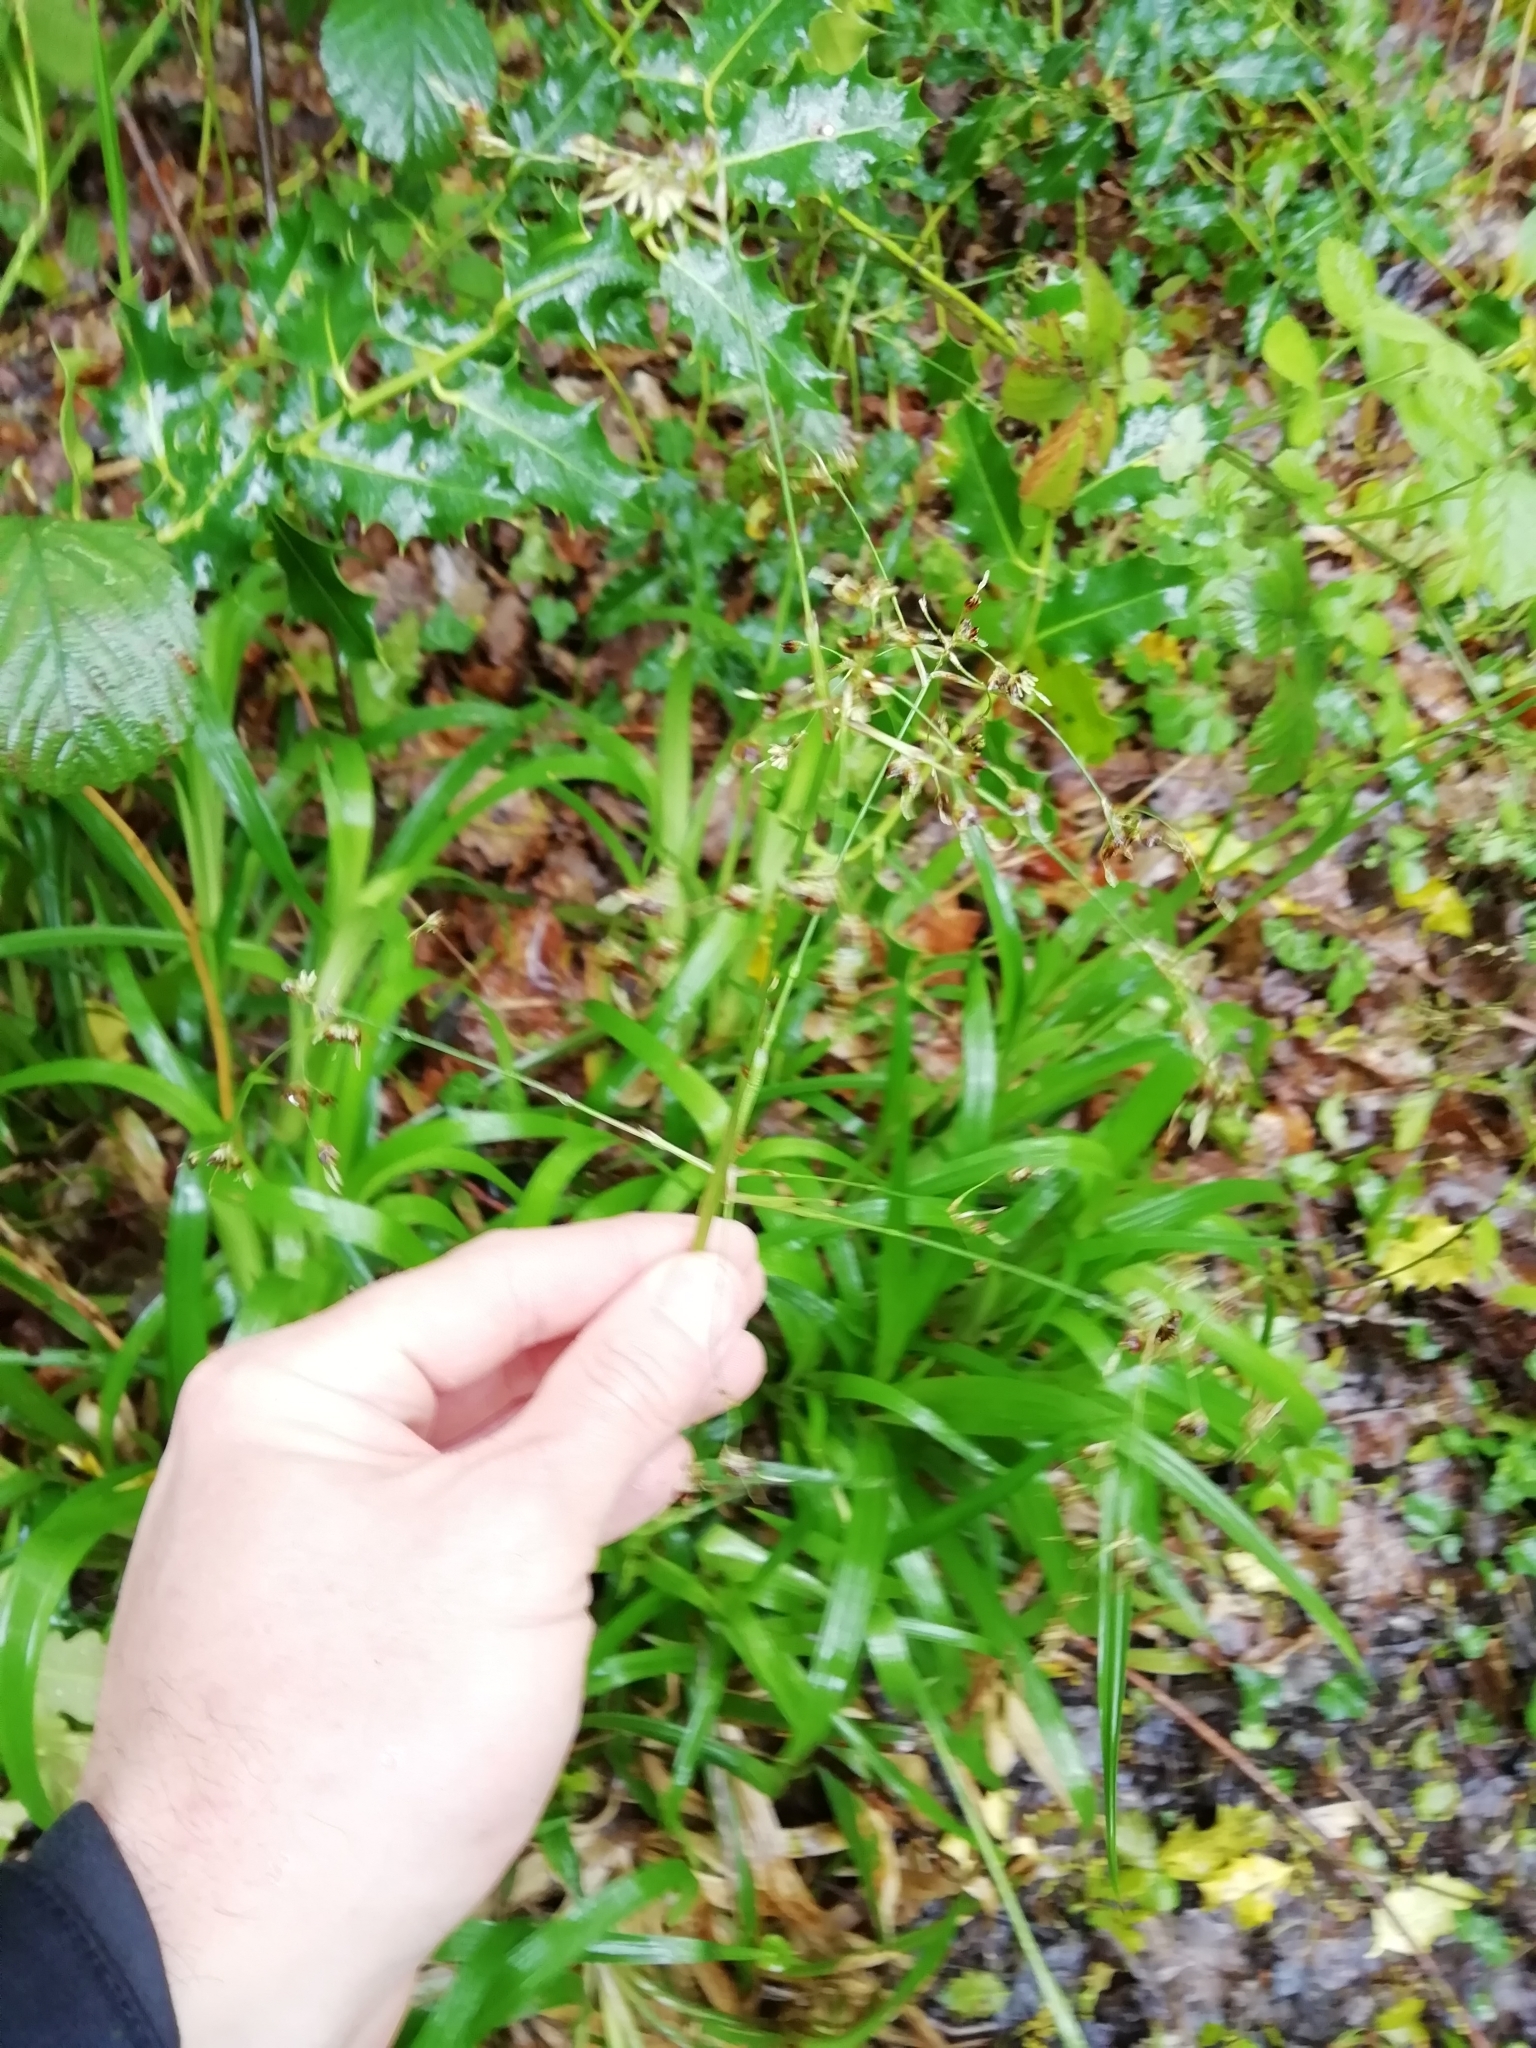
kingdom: Plantae
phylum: Tracheophyta
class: Liliopsida
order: Poales
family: Juncaceae
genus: Luzula
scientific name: Luzula sylvatica
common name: Great wood-rush
